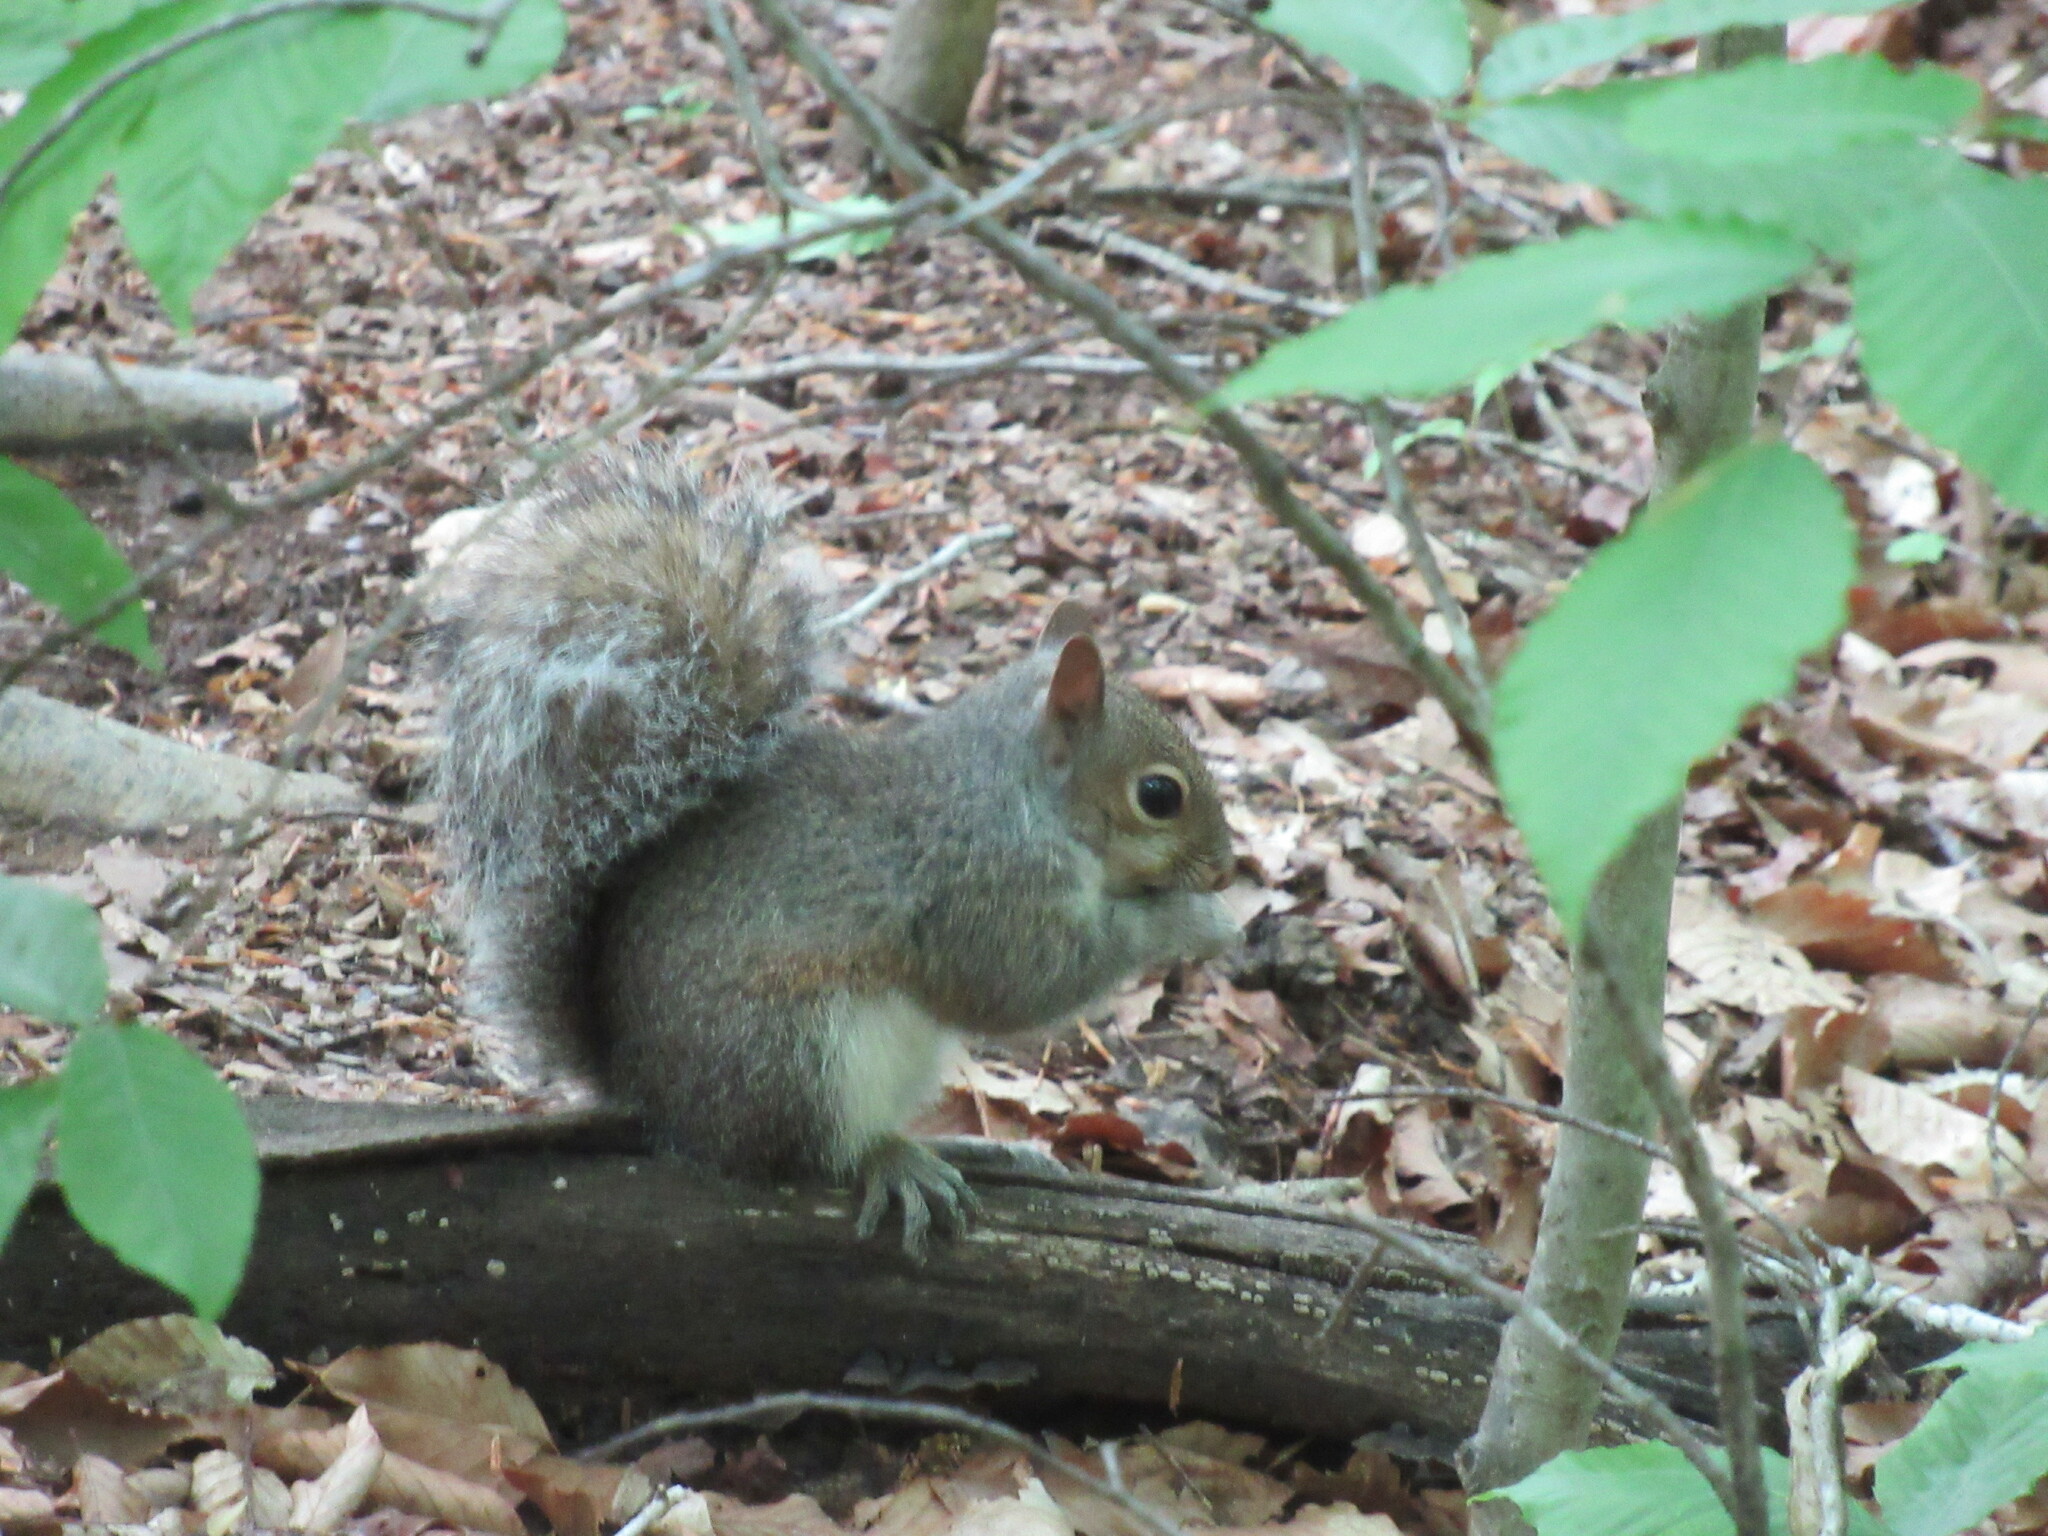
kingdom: Animalia
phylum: Chordata
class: Mammalia
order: Rodentia
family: Sciuridae
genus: Sciurus
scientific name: Sciurus carolinensis
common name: Eastern gray squirrel
